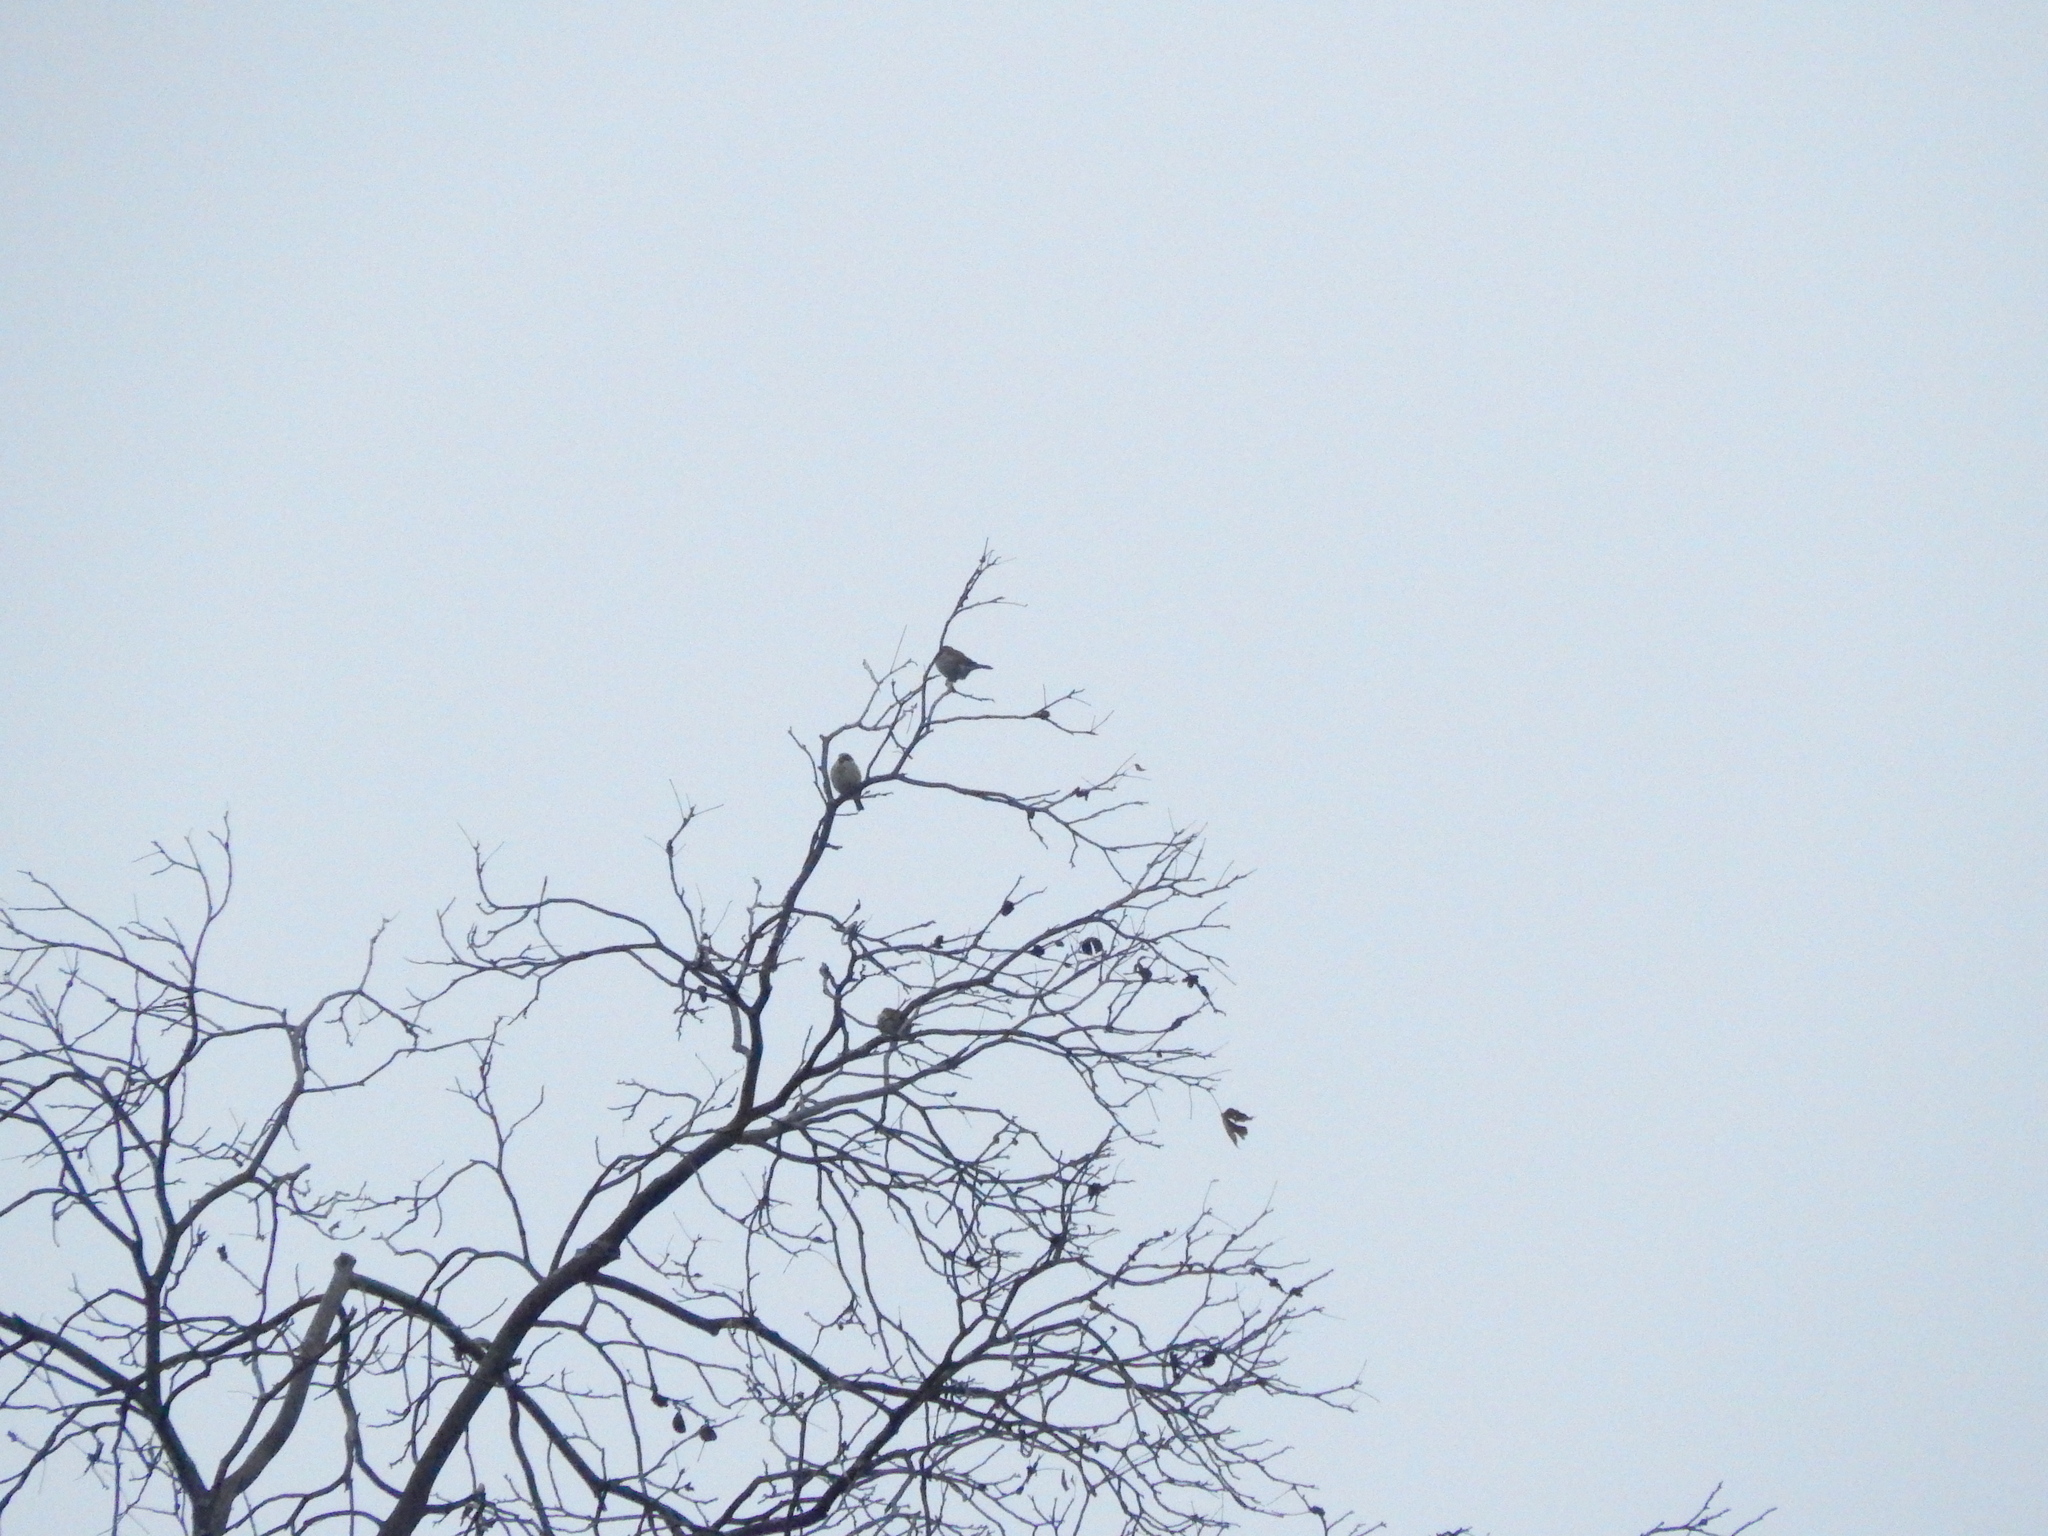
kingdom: Animalia
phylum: Chordata
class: Aves
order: Passeriformes
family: Passeridae
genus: Passer
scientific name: Passer domesticus
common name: House sparrow
